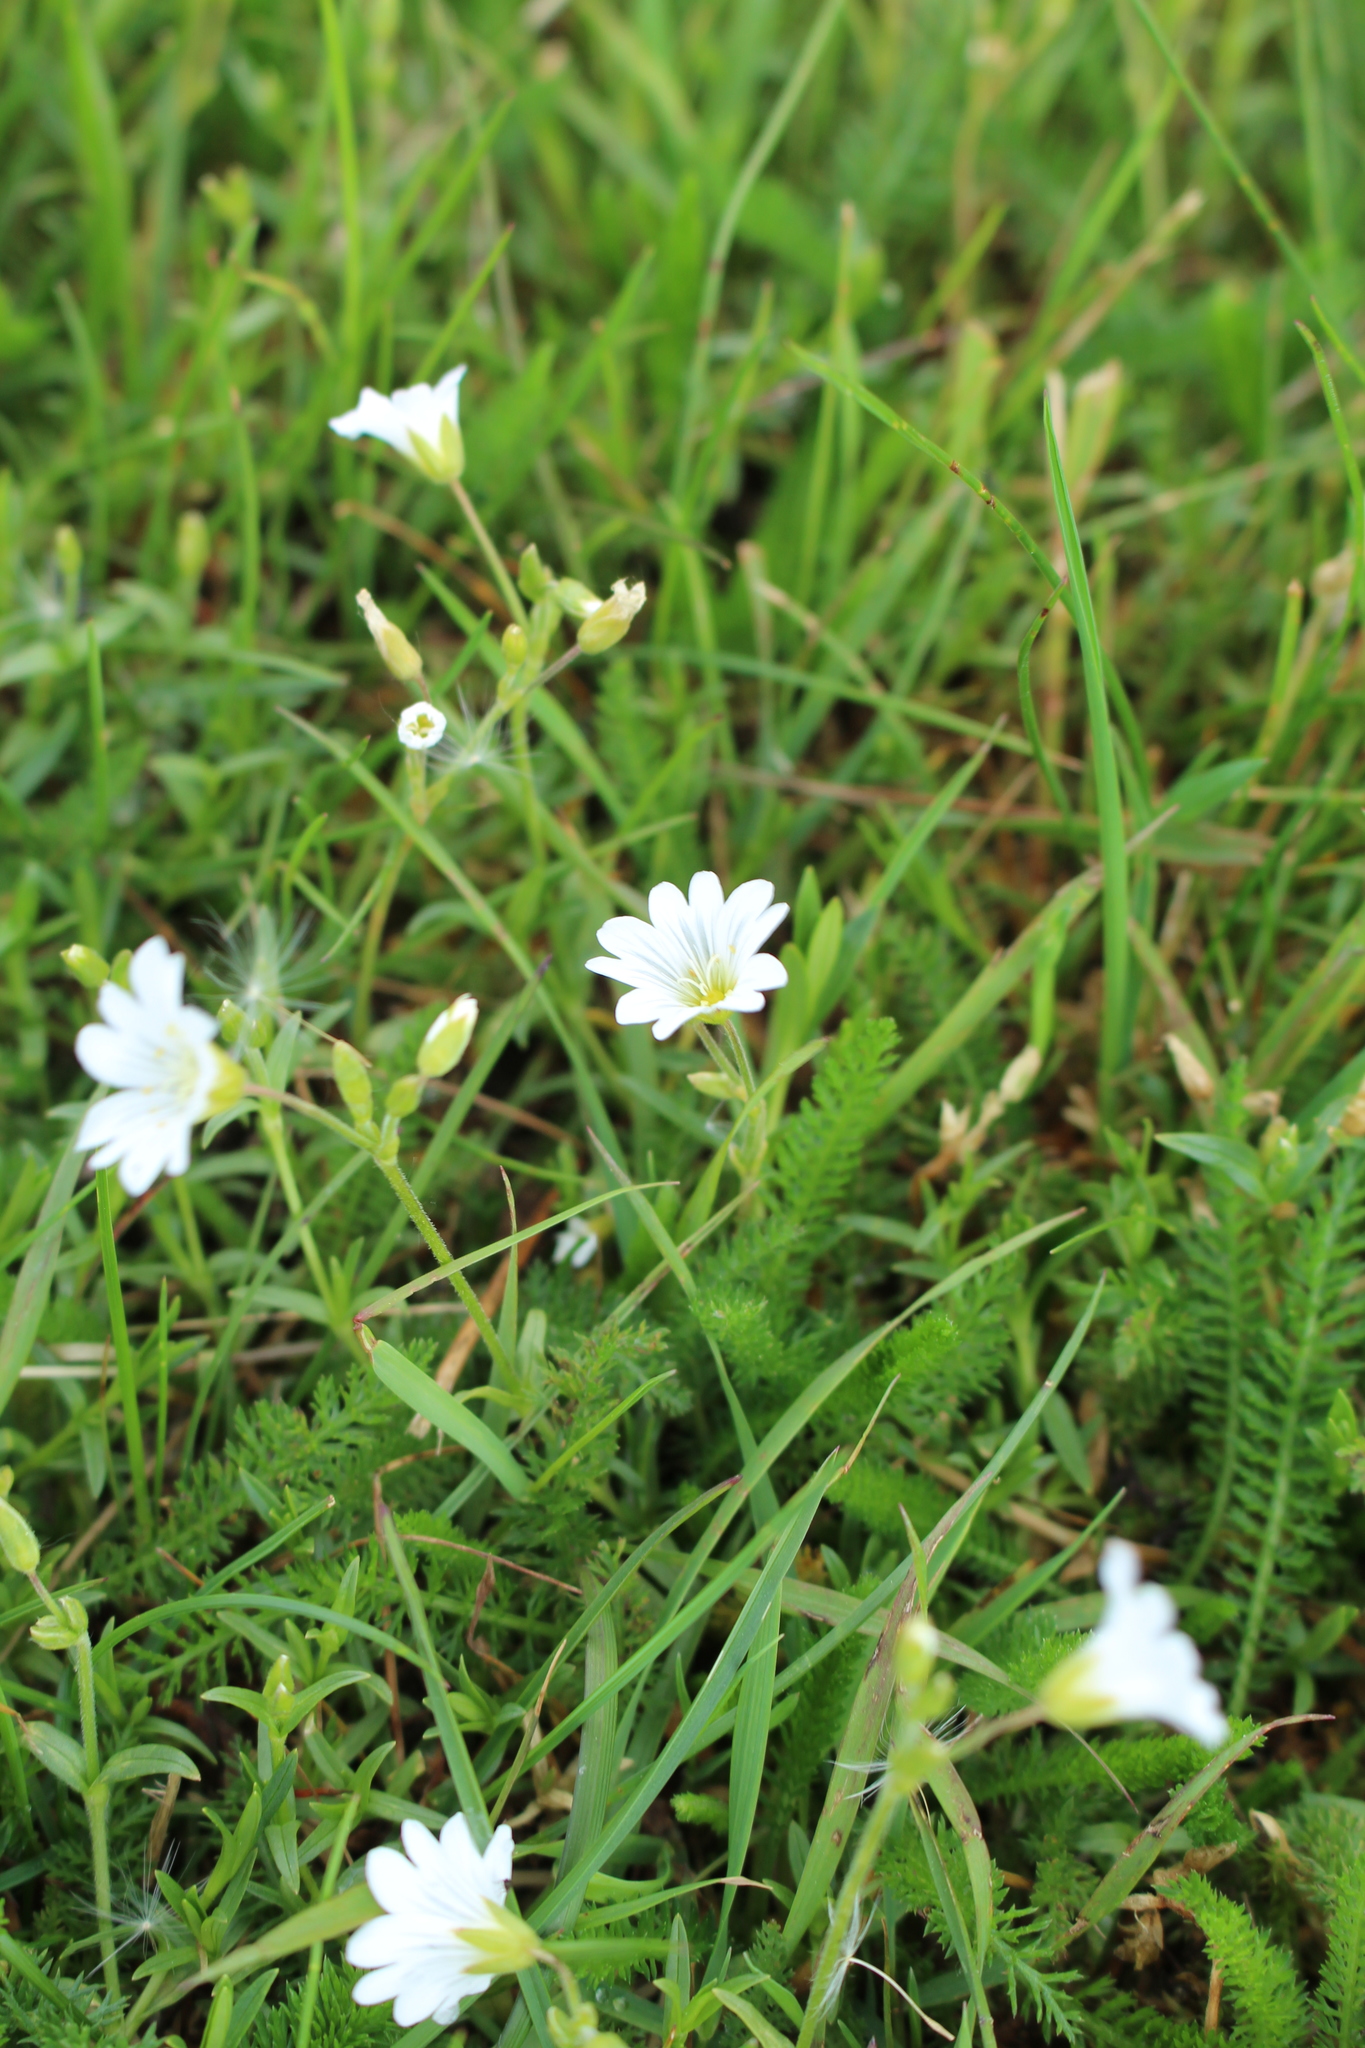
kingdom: Plantae
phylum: Tracheophyta
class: Magnoliopsida
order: Caryophyllales
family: Caryophyllaceae
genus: Cerastium
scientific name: Cerastium arvense
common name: Field mouse-ear
